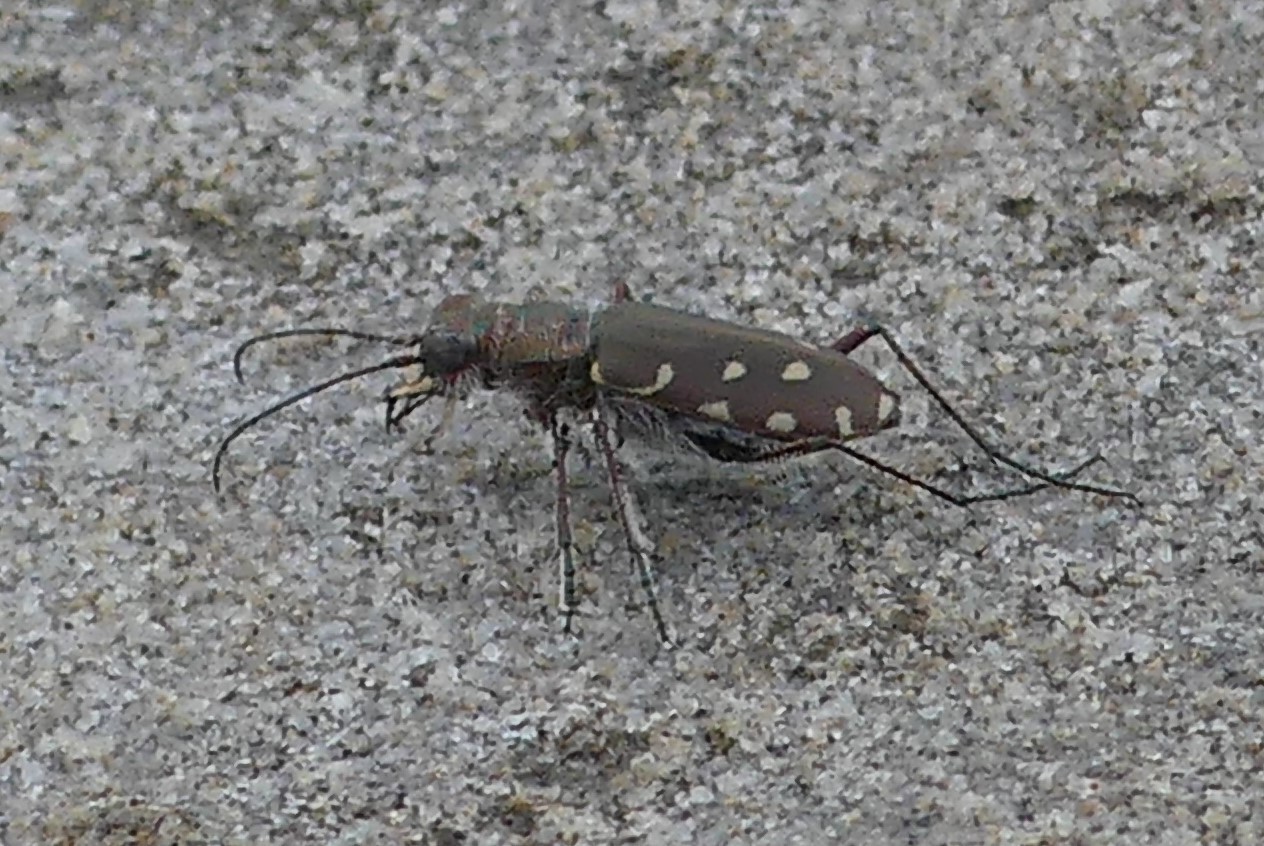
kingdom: Animalia
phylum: Arthropoda
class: Insecta
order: Coleoptera
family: Carabidae
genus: Cicindela
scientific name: Cicindela littoralis
